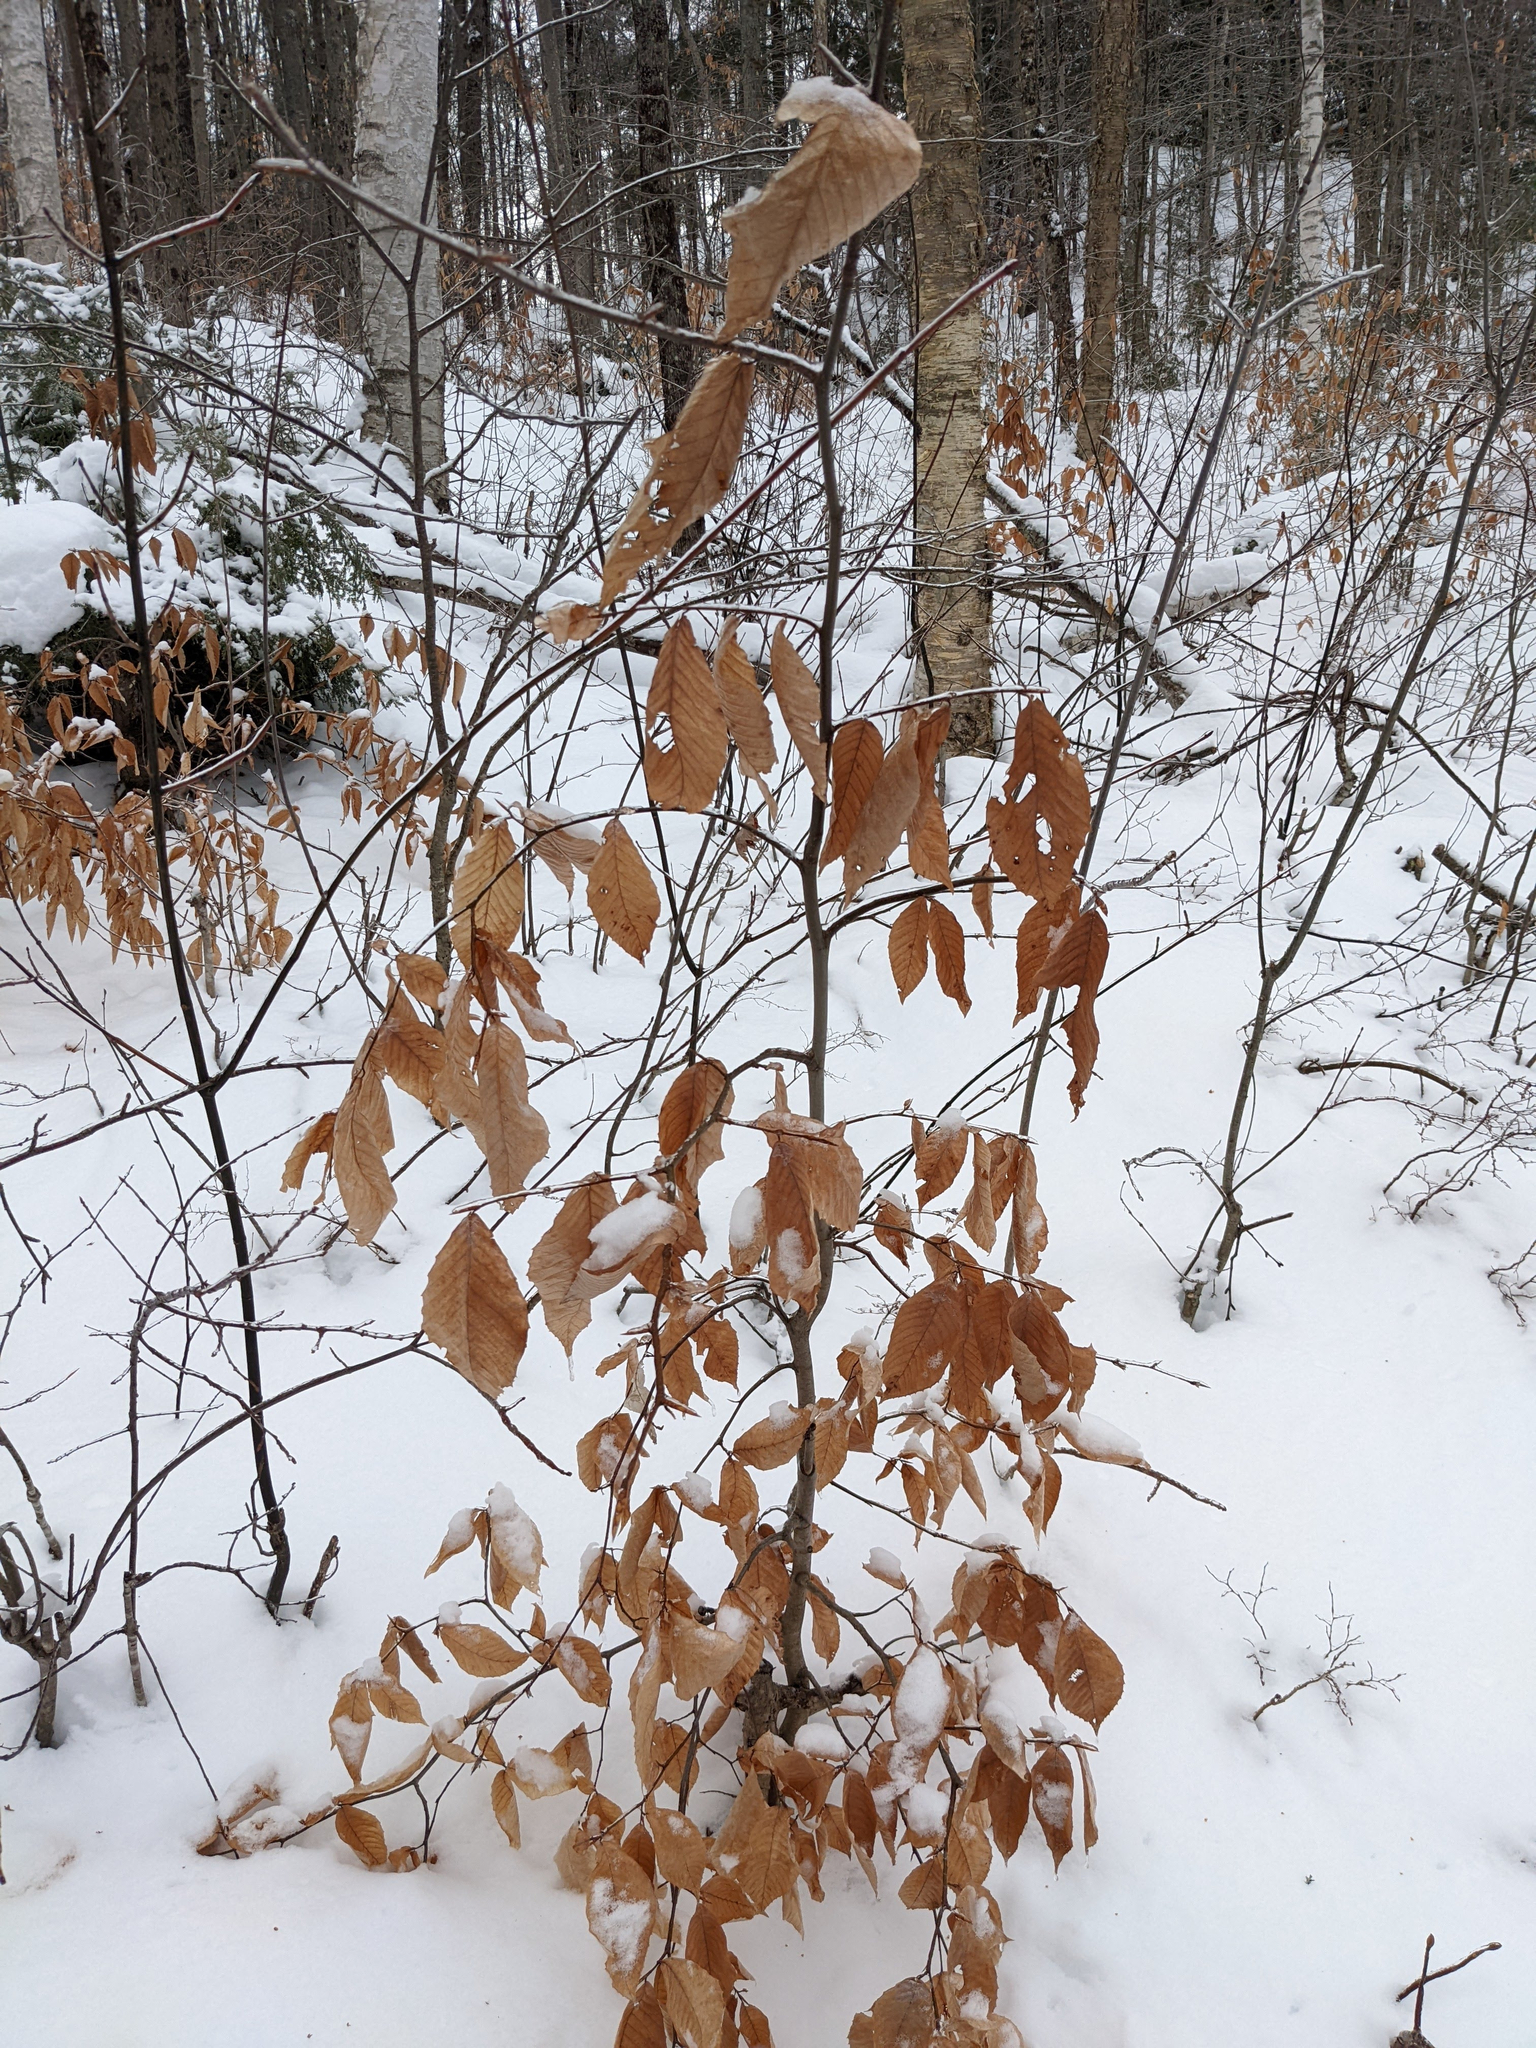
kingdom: Plantae
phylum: Tracheophyta
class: Magnoliopsida
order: Fagales
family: Fagaceae
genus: Fagus
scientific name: Fagus grandifolia
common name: American beech
